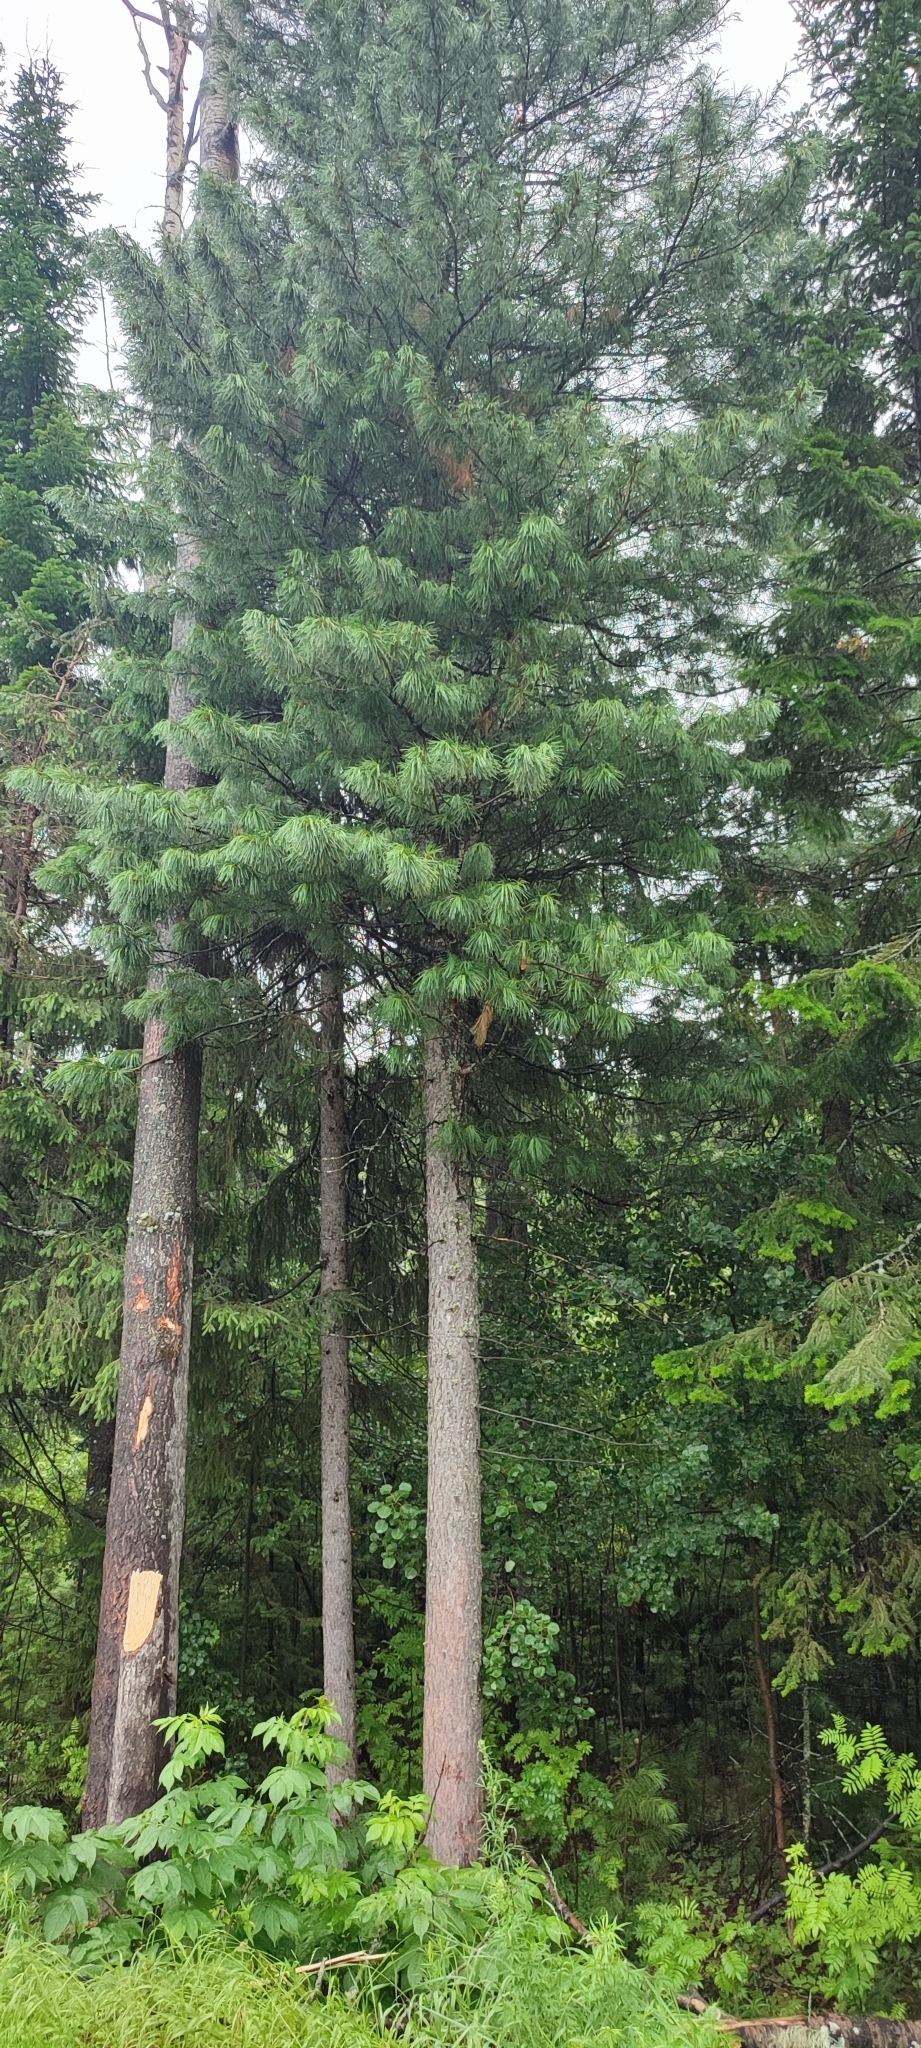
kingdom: Plantae
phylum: Tracheophyta
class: Pinopsida
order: Pinales
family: Pinaceae
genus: Pinus
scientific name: Pinus sibirica
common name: Siberian pine
